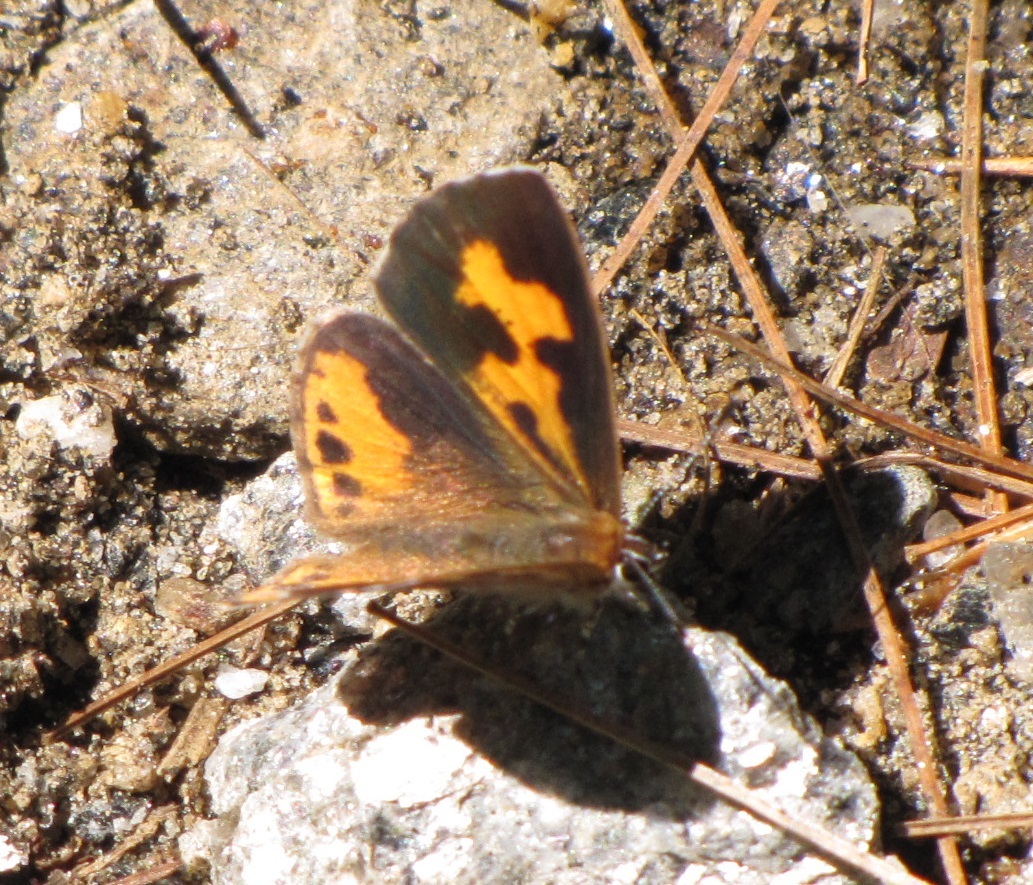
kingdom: Animalia
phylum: Arthropoda
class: Insecta
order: Lepidoptera
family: Lycaenidae
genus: Feniseca
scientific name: Feniseca tarquinius
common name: Harvester
